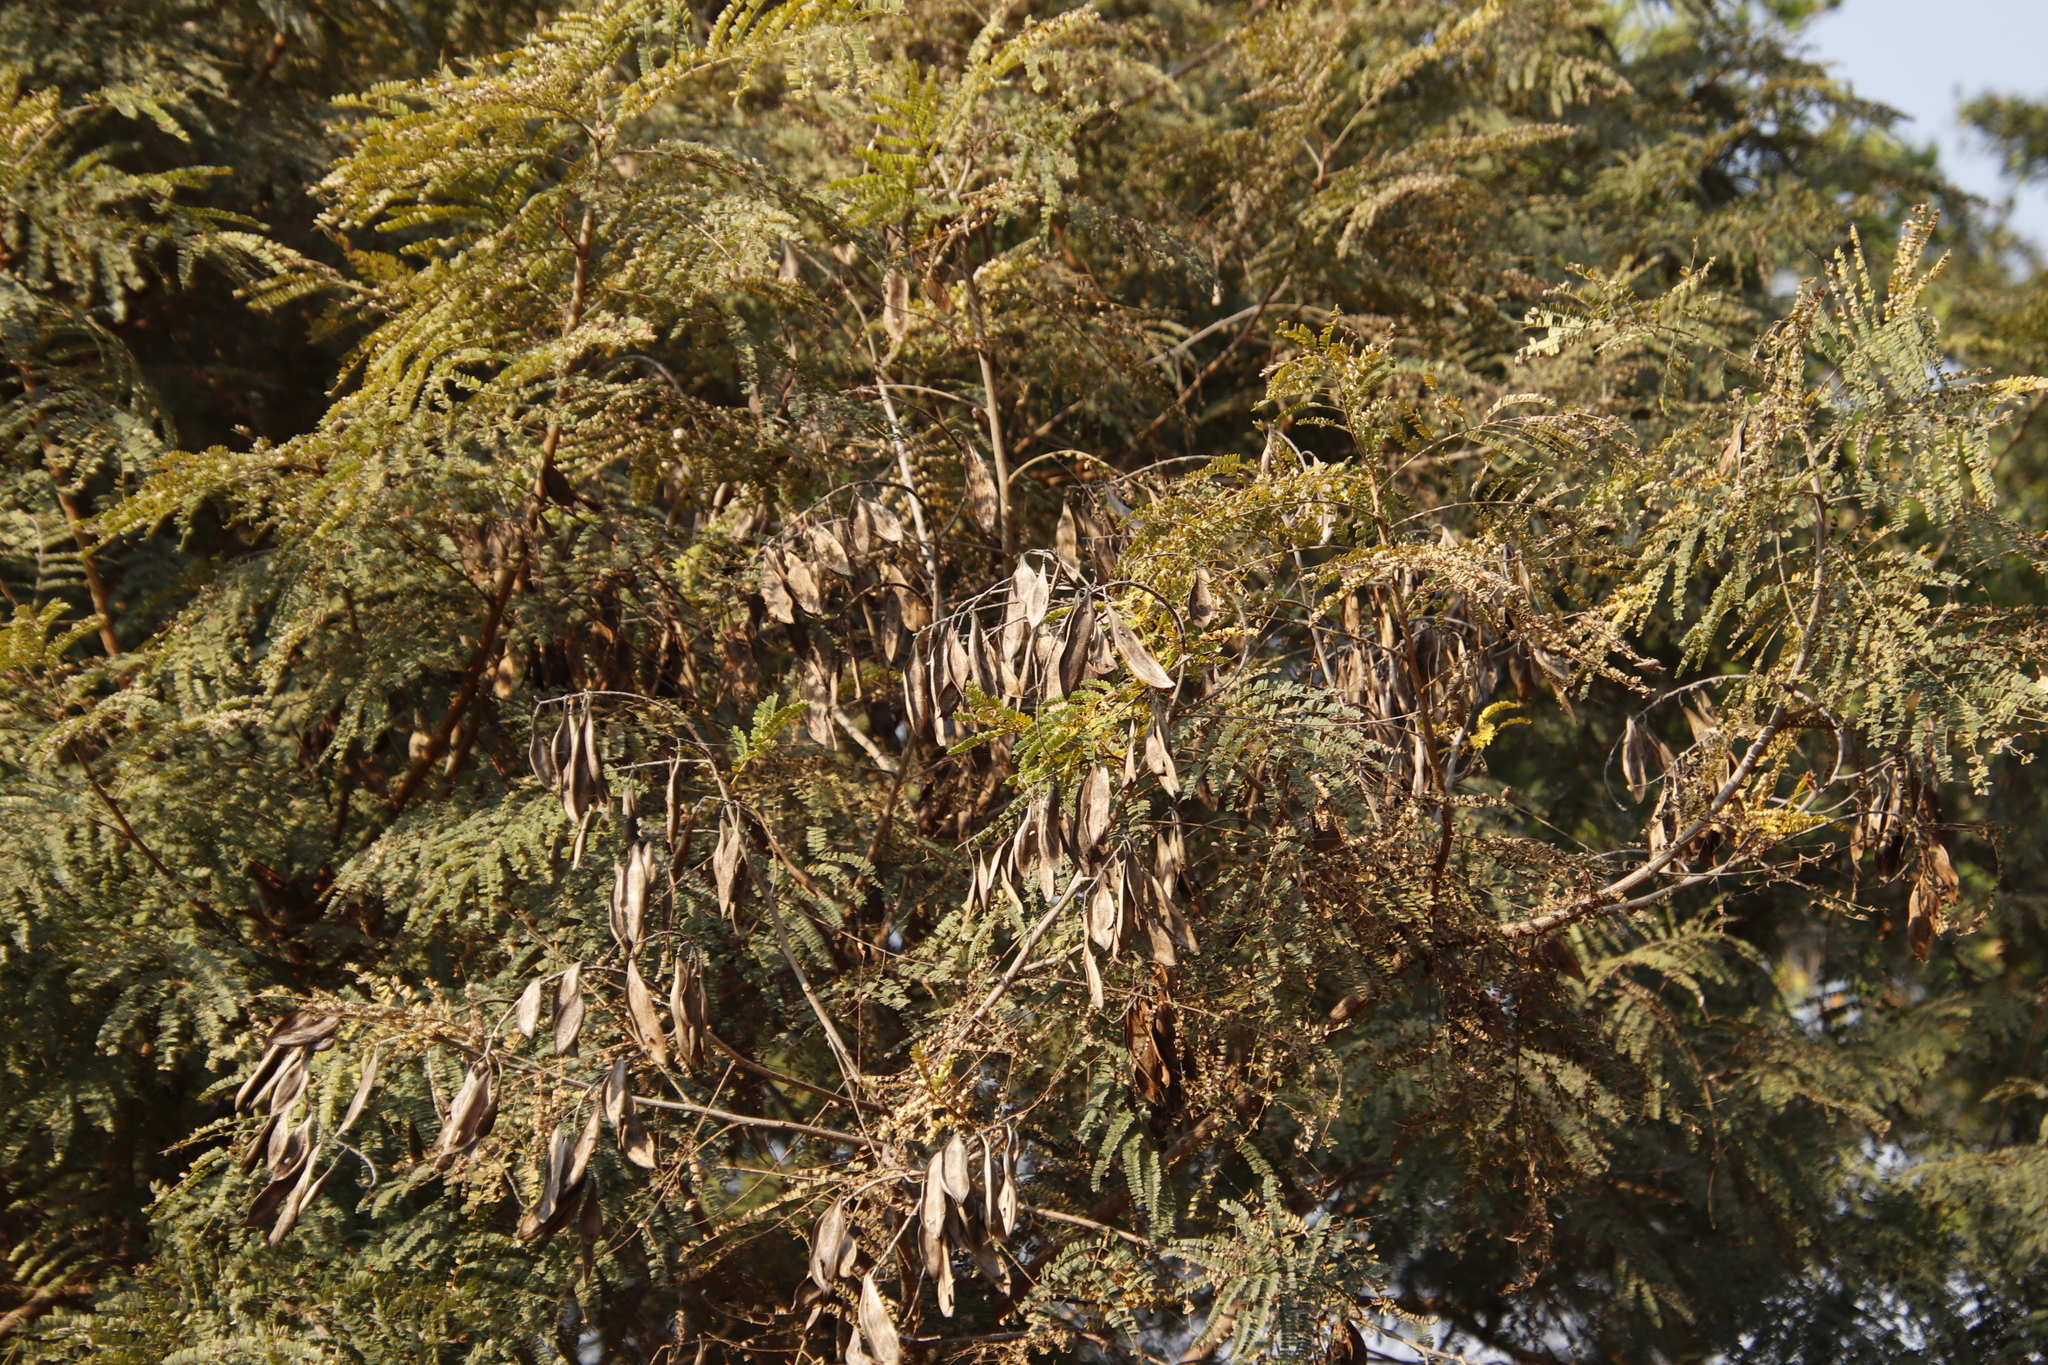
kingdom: Plantae
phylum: Tracheophyta
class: Magnoliopsida
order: Fabales
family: Fabaceae
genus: Senegalia
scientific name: Senegalia caffra
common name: Cat thorn
